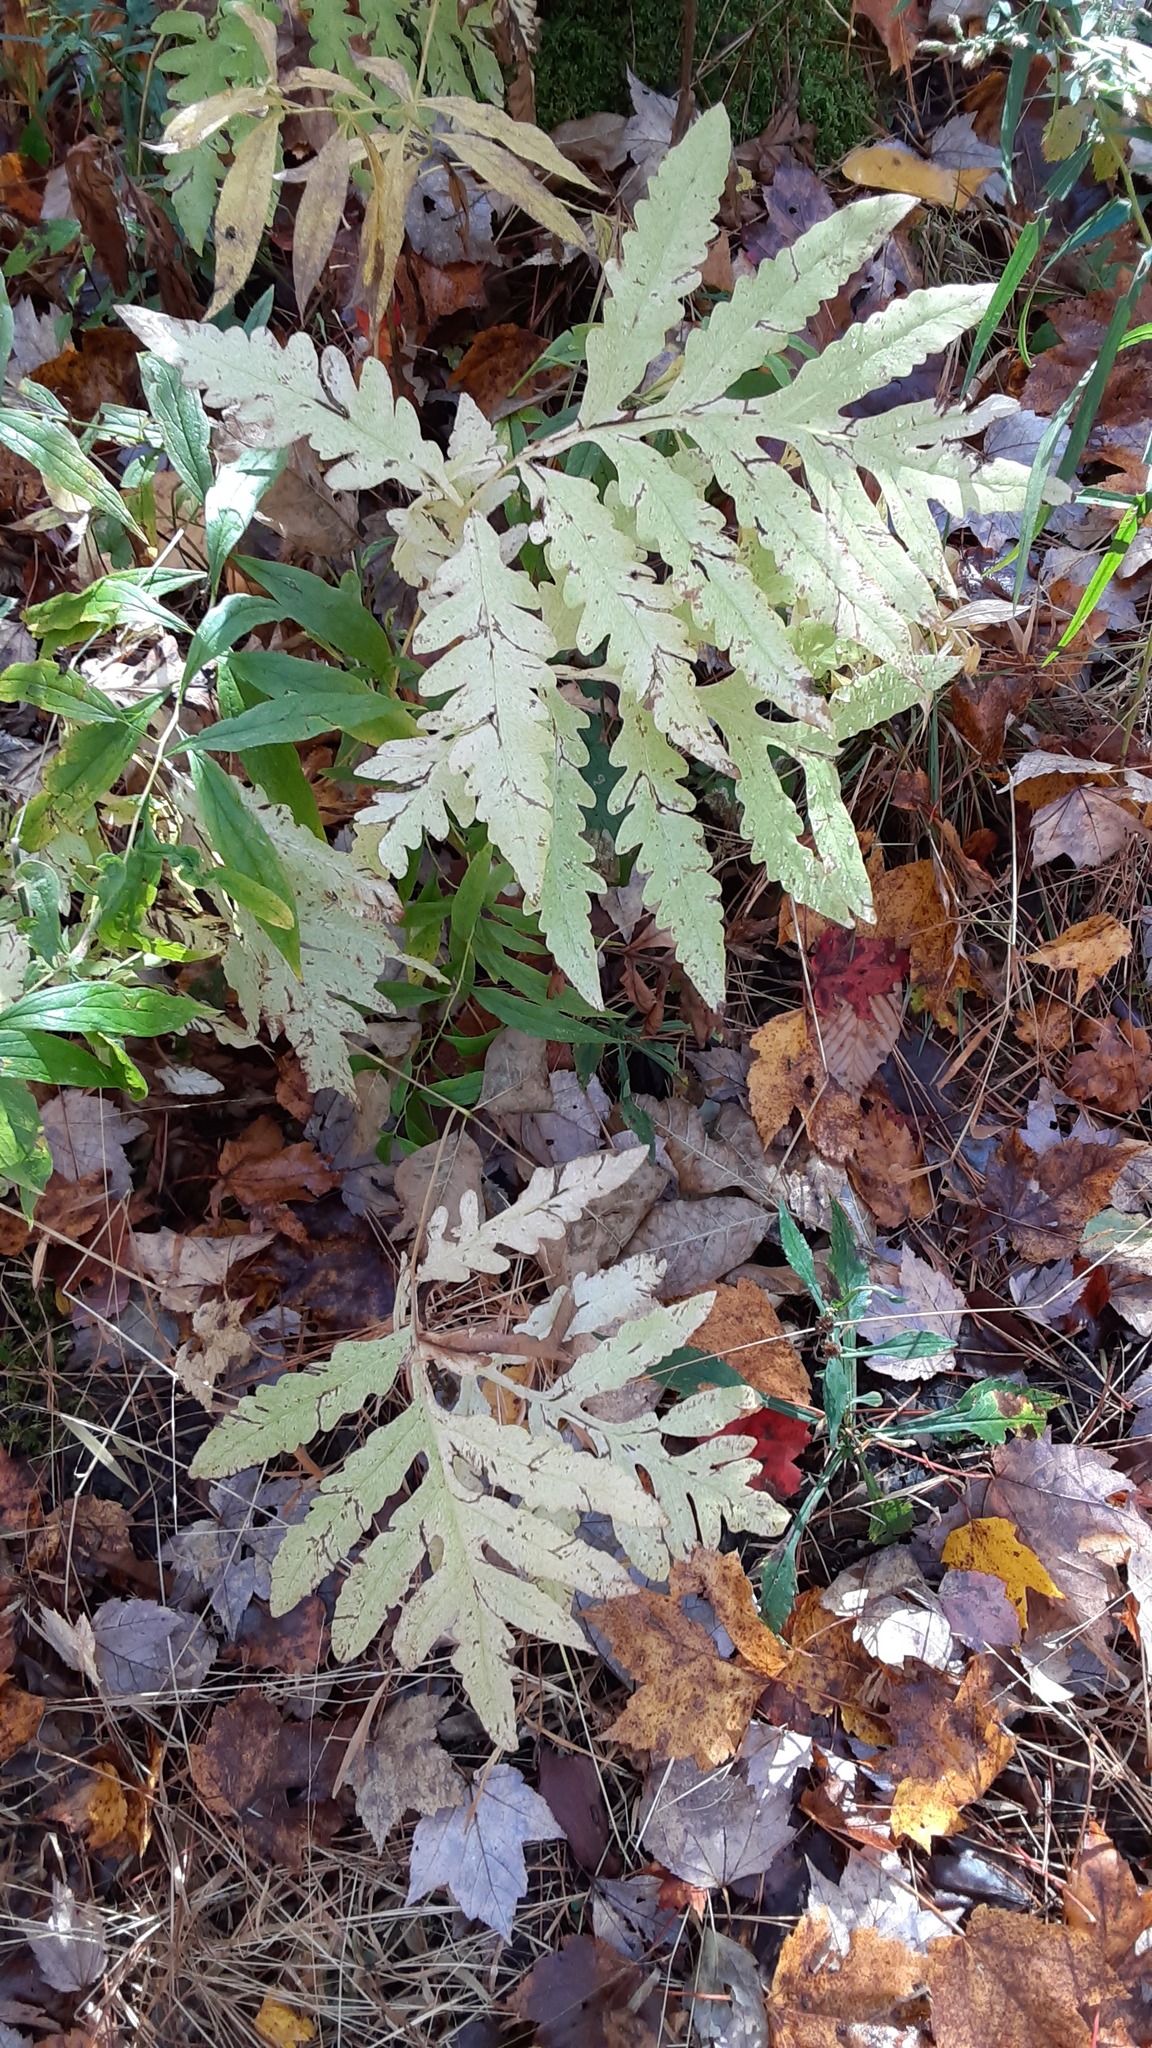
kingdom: Plantae
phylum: Tracheophyta
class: Polypodiopsida
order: Polypodiales
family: Onocleaceae
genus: Onoclea
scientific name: Onoclea sensibilis
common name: Sensitive fern
